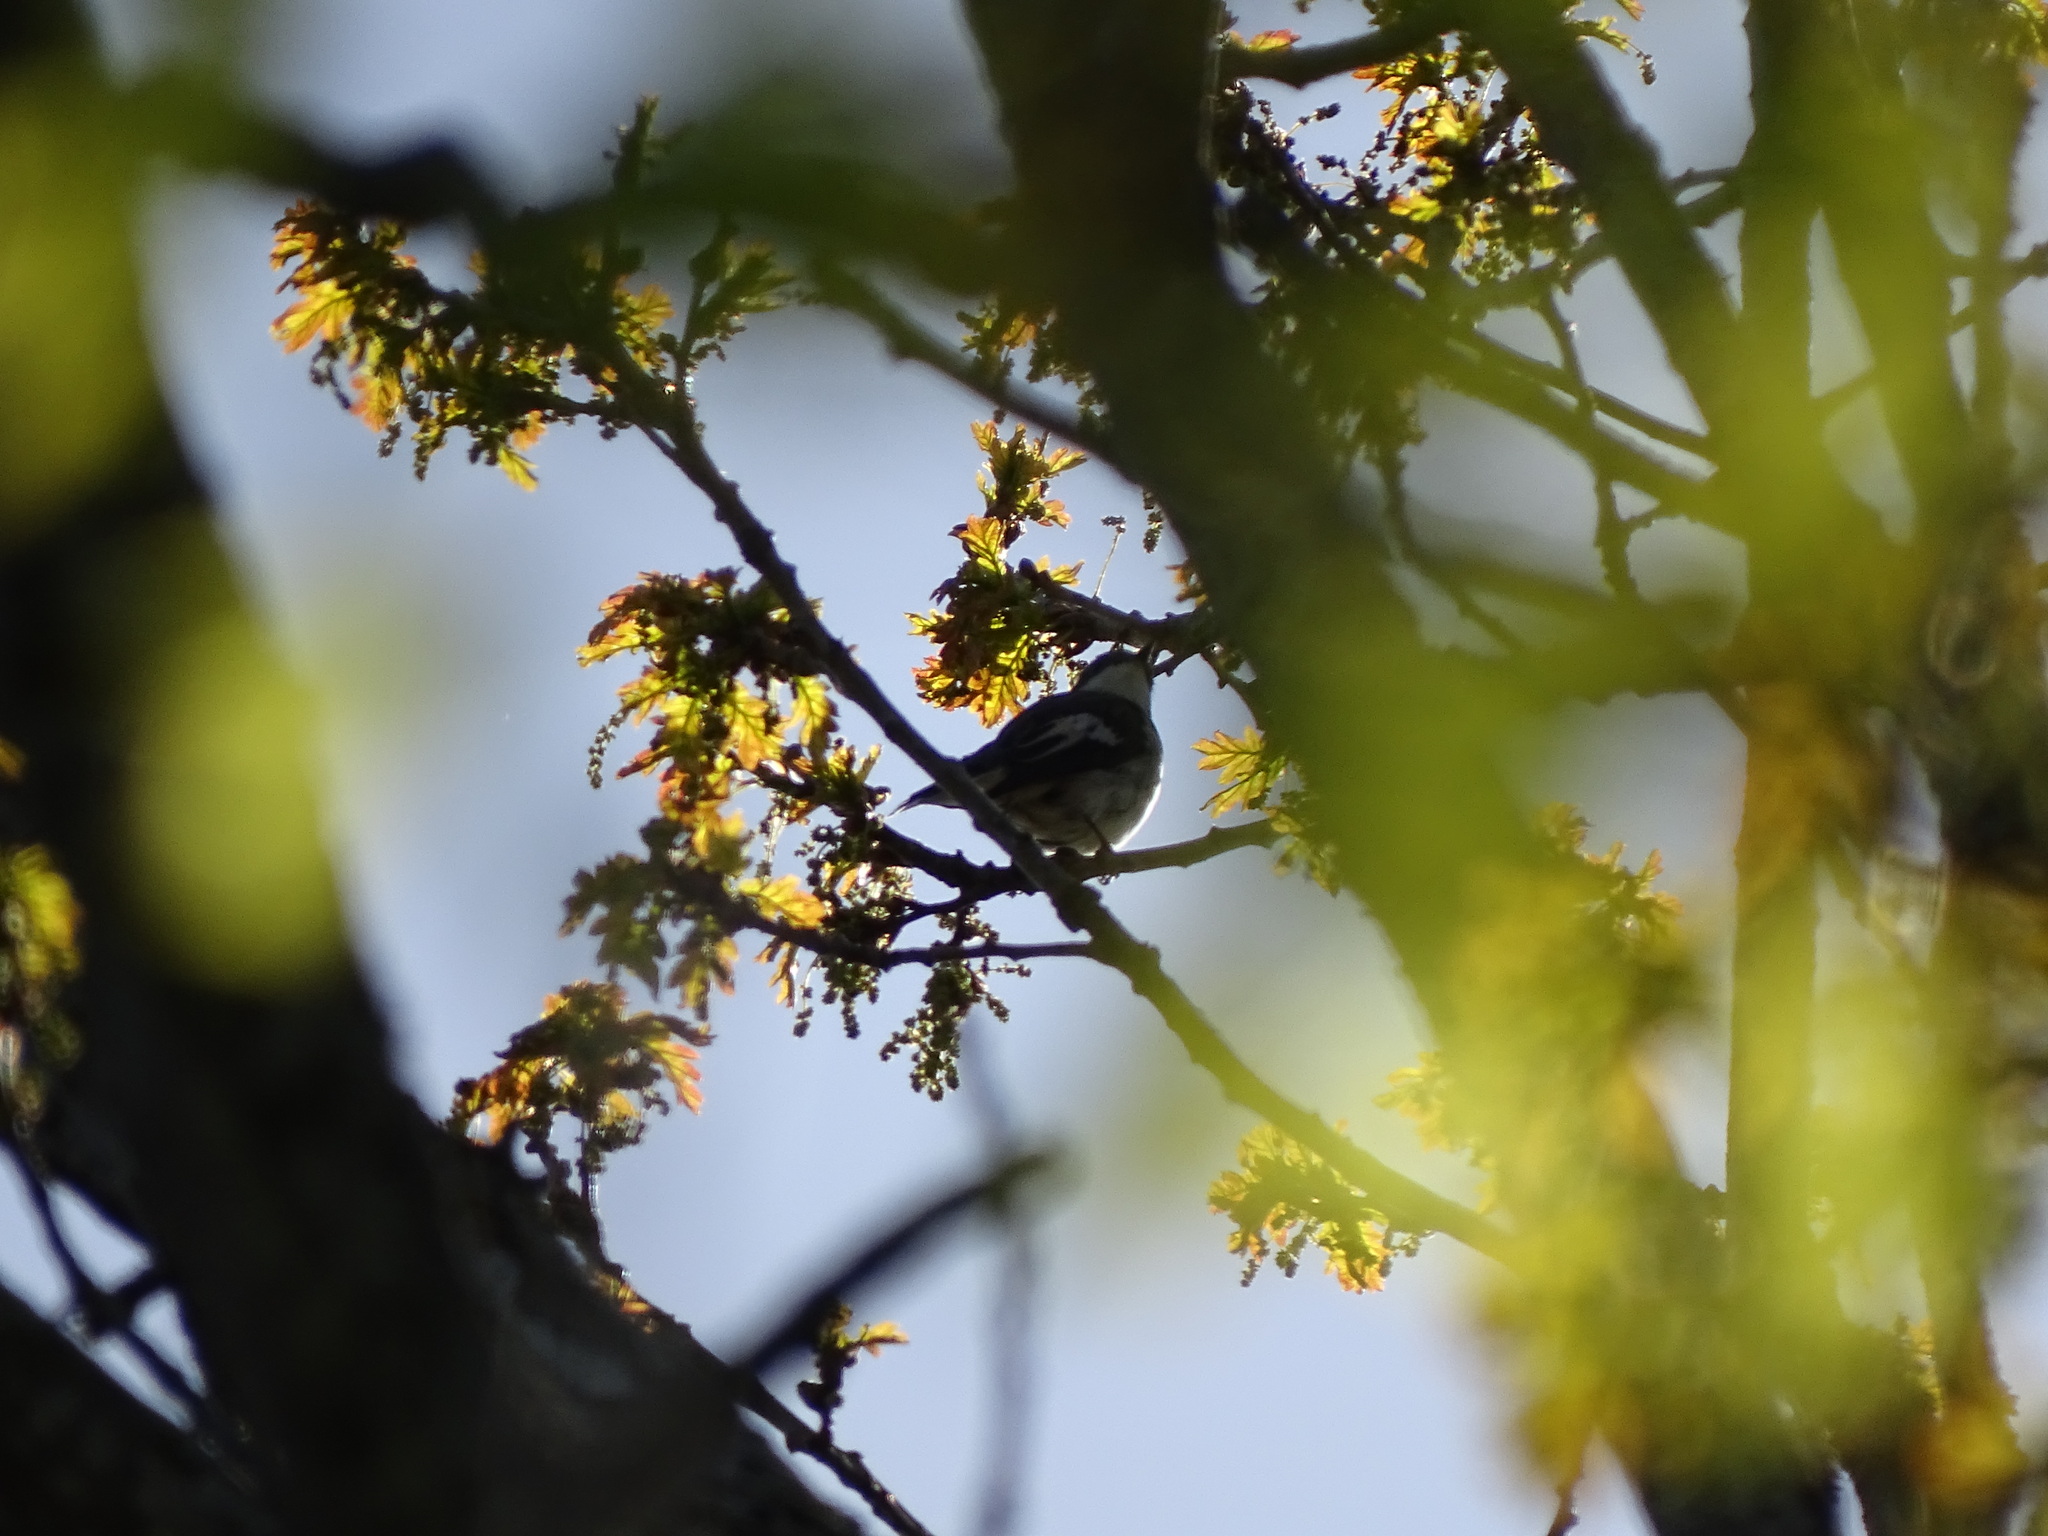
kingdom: Animalia
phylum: Chordata
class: Aves
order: Passeriformes
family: Muscicapidae
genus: Ficedula
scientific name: Ficedula albicollis
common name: Collared flycatcher
